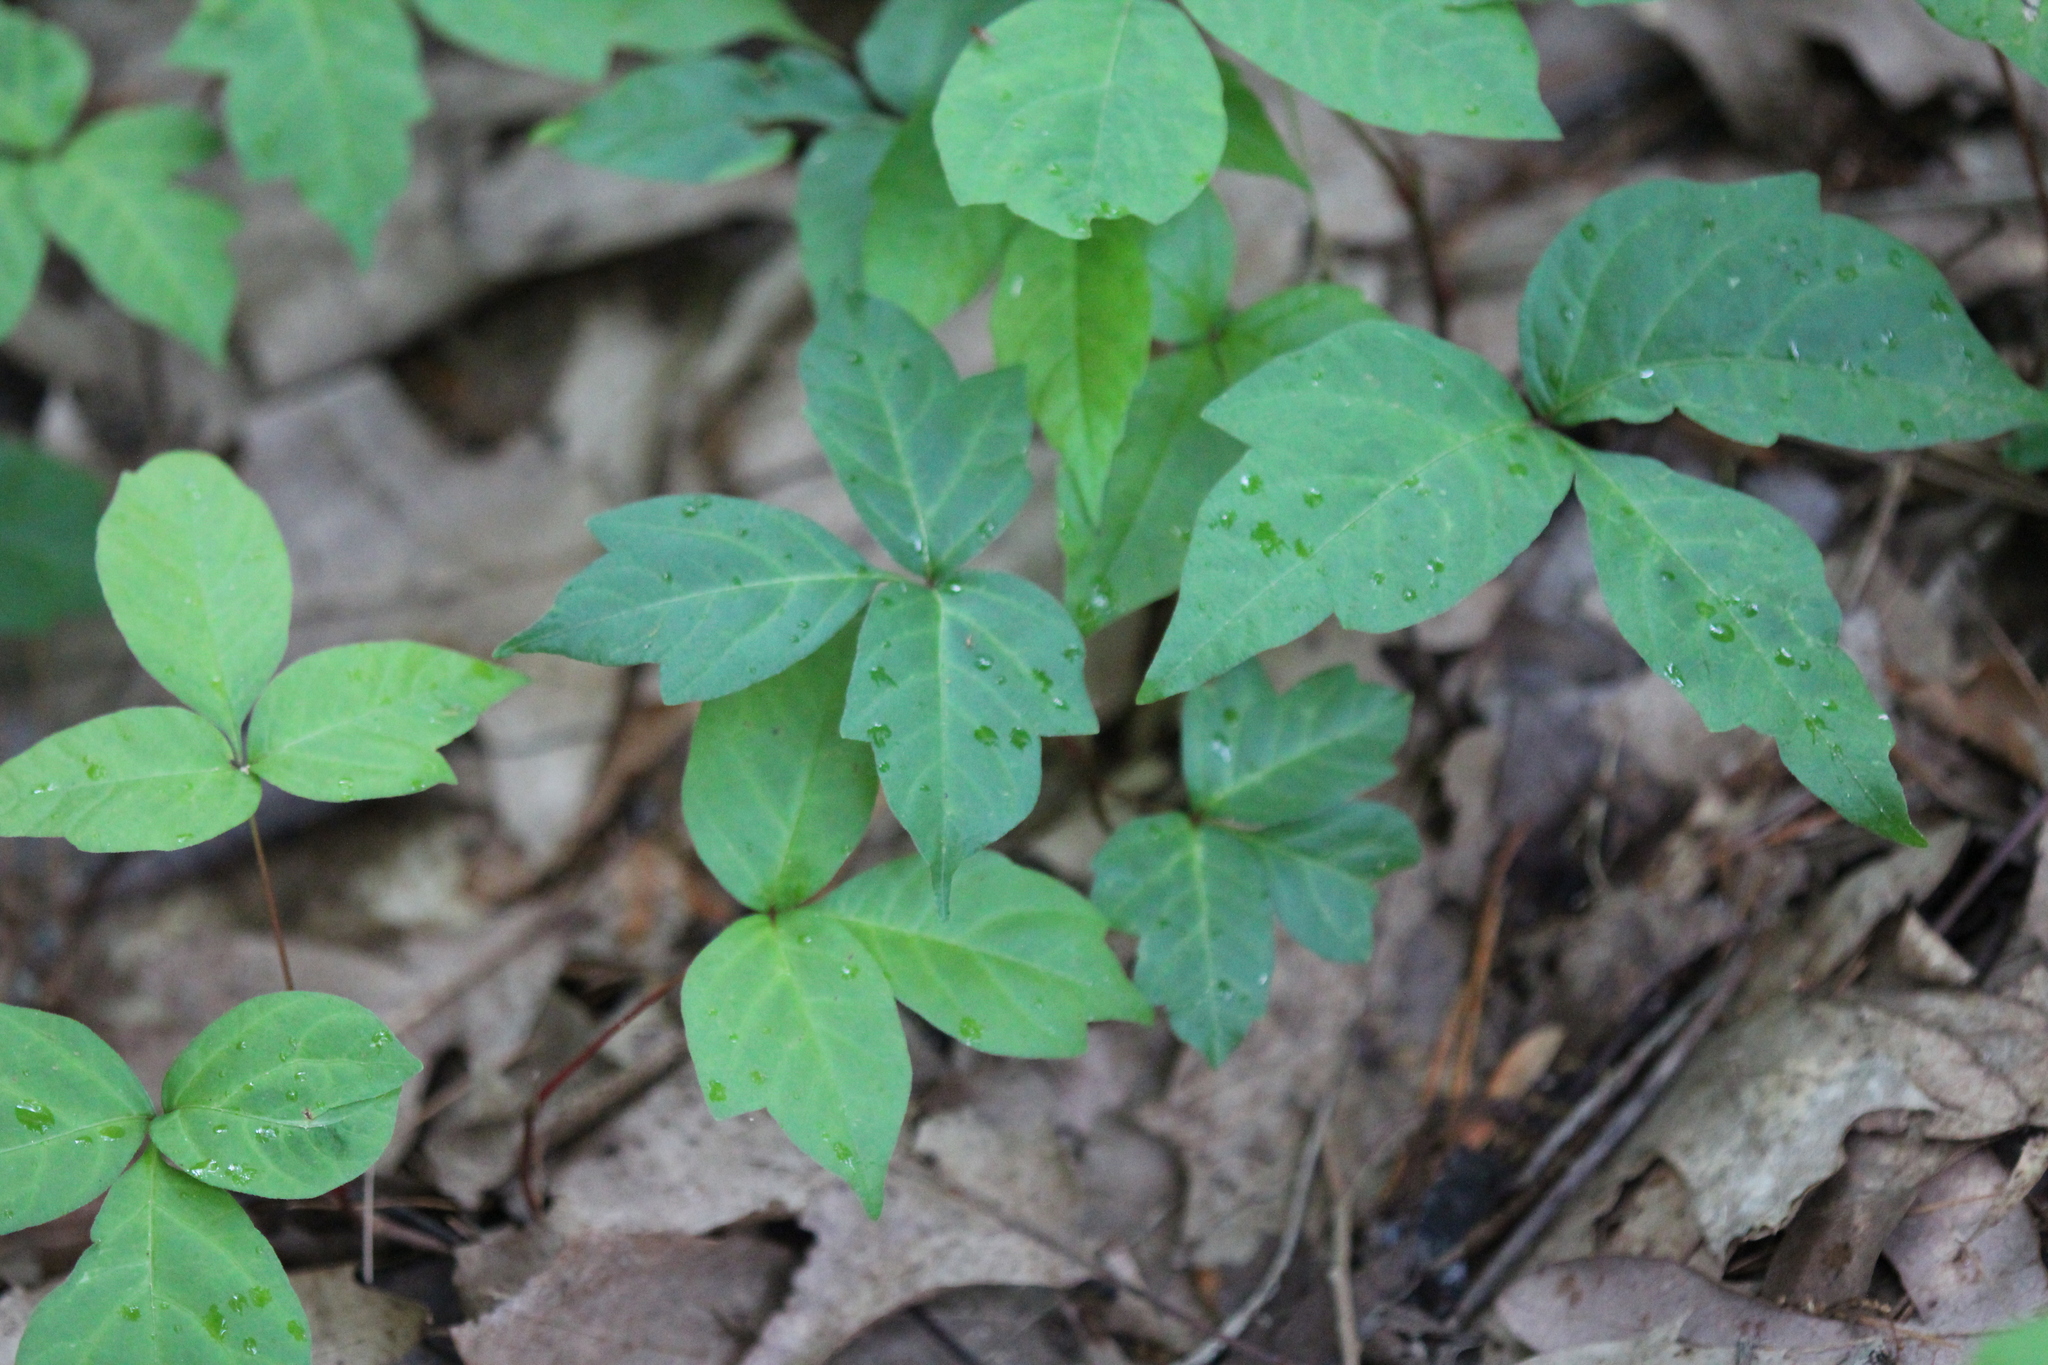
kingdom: Plantae
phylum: Tracheophyta
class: Magnoliopsida
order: Sapindales
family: Anacardiaceae
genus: Toxicodendron
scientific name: Toxicodendron radicans
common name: Poison ivy
